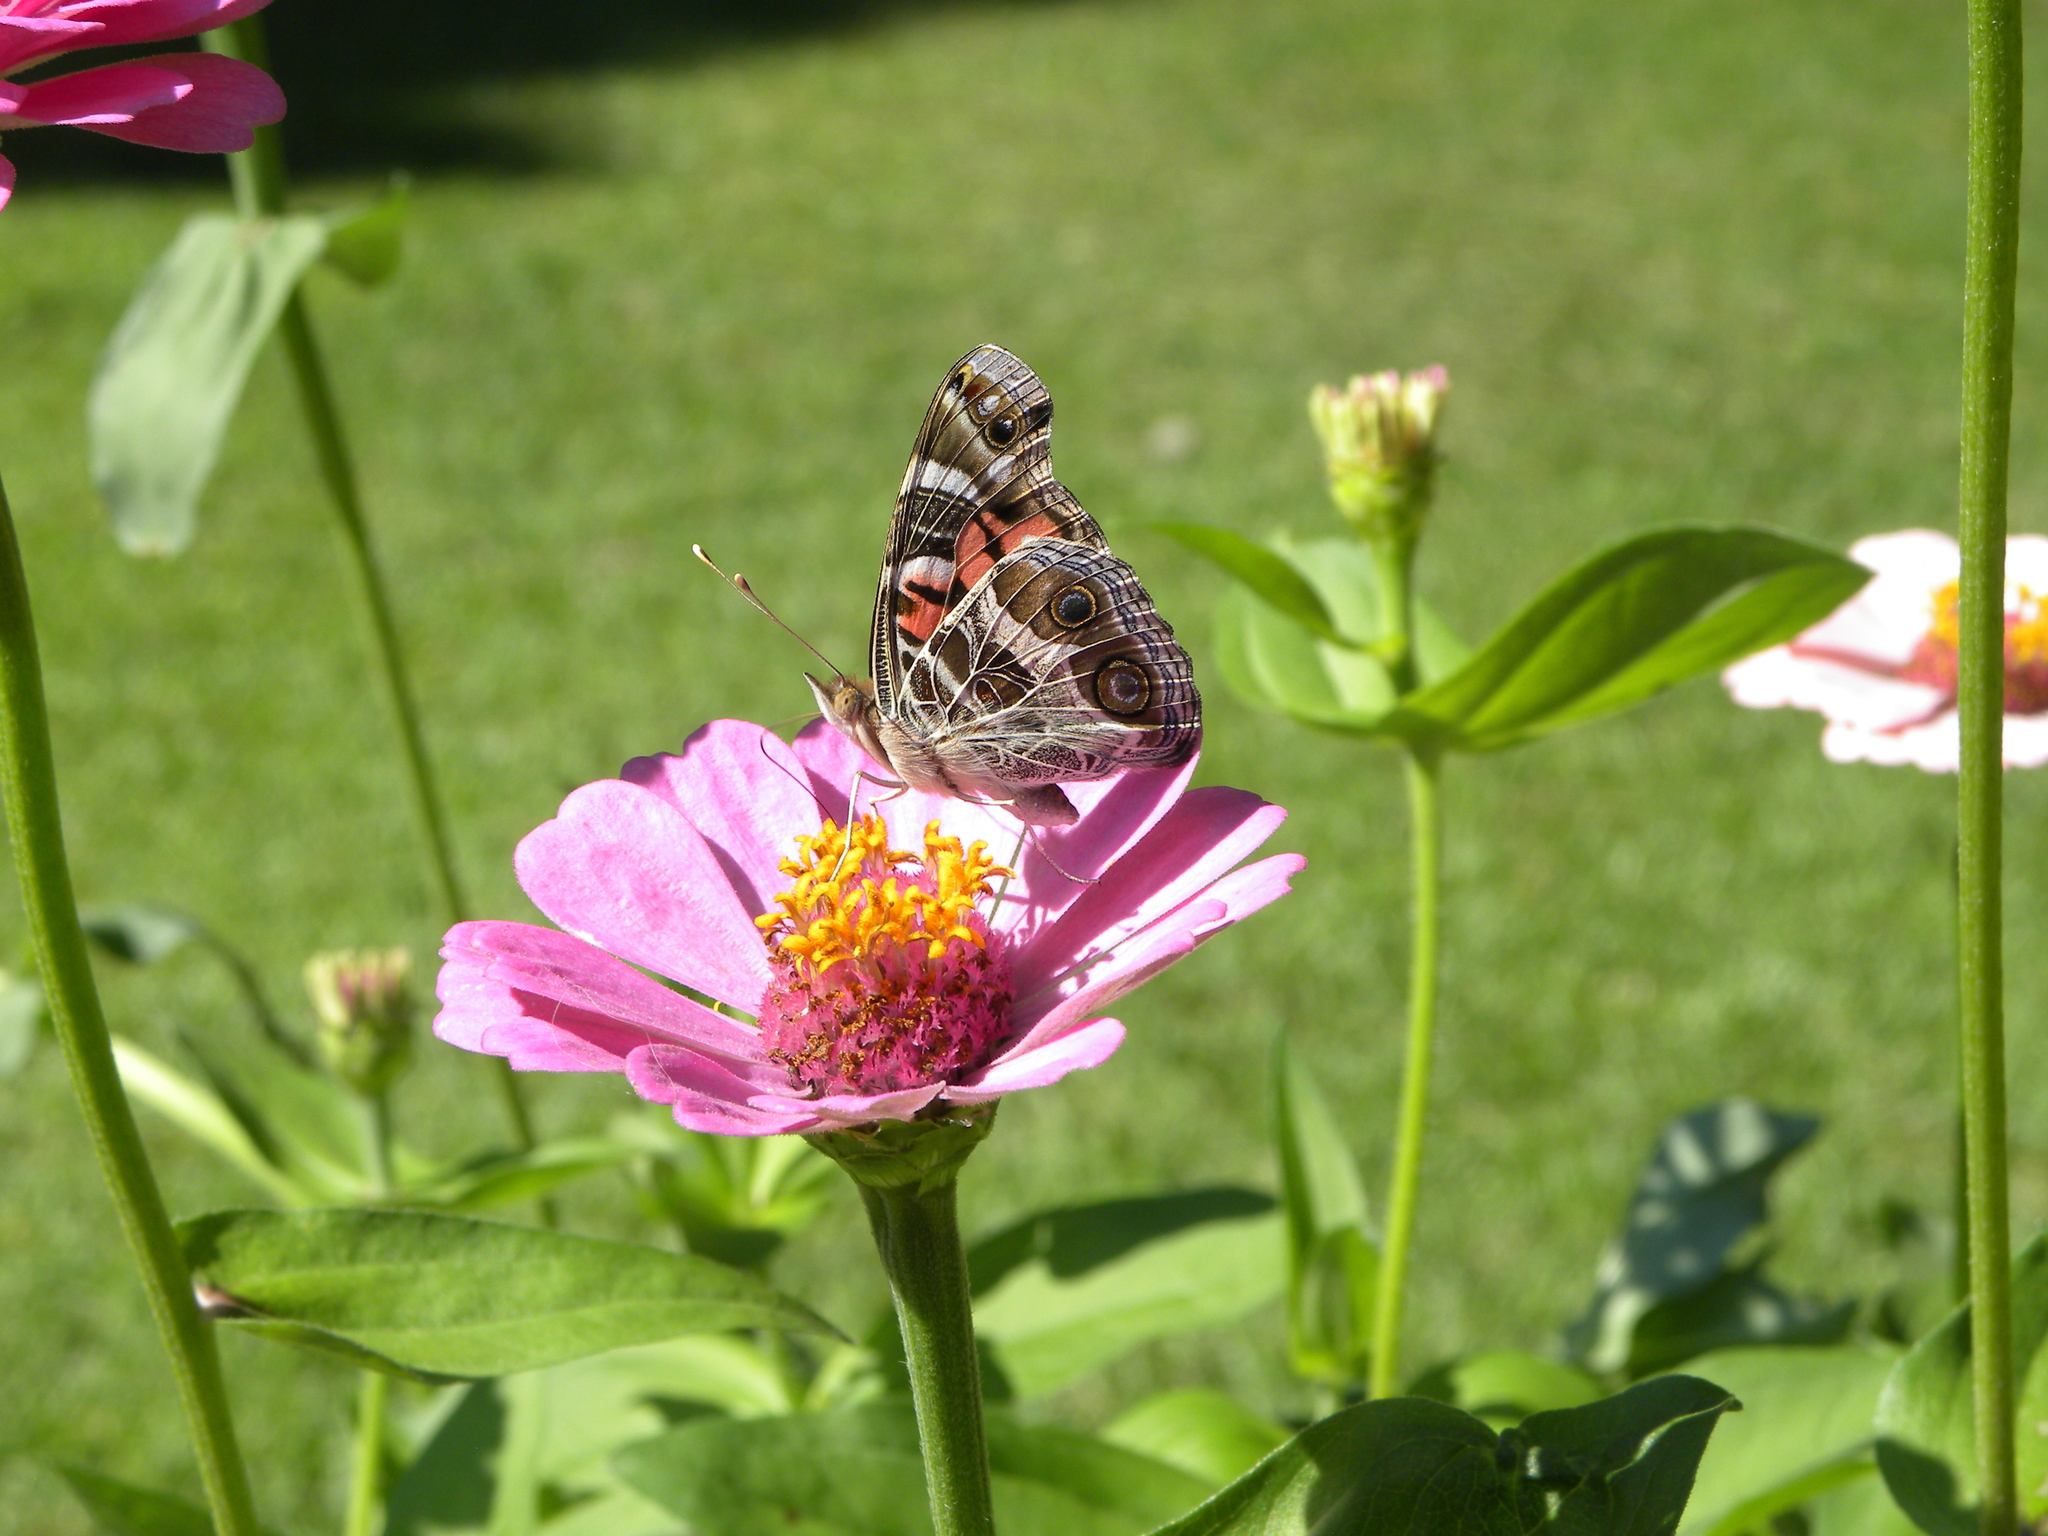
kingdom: Animalia
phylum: Arthropoda
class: Insecta
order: Lepidoptera
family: Nymphalidae
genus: Vanessa
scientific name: Vanessa virginiensis
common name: American lady
